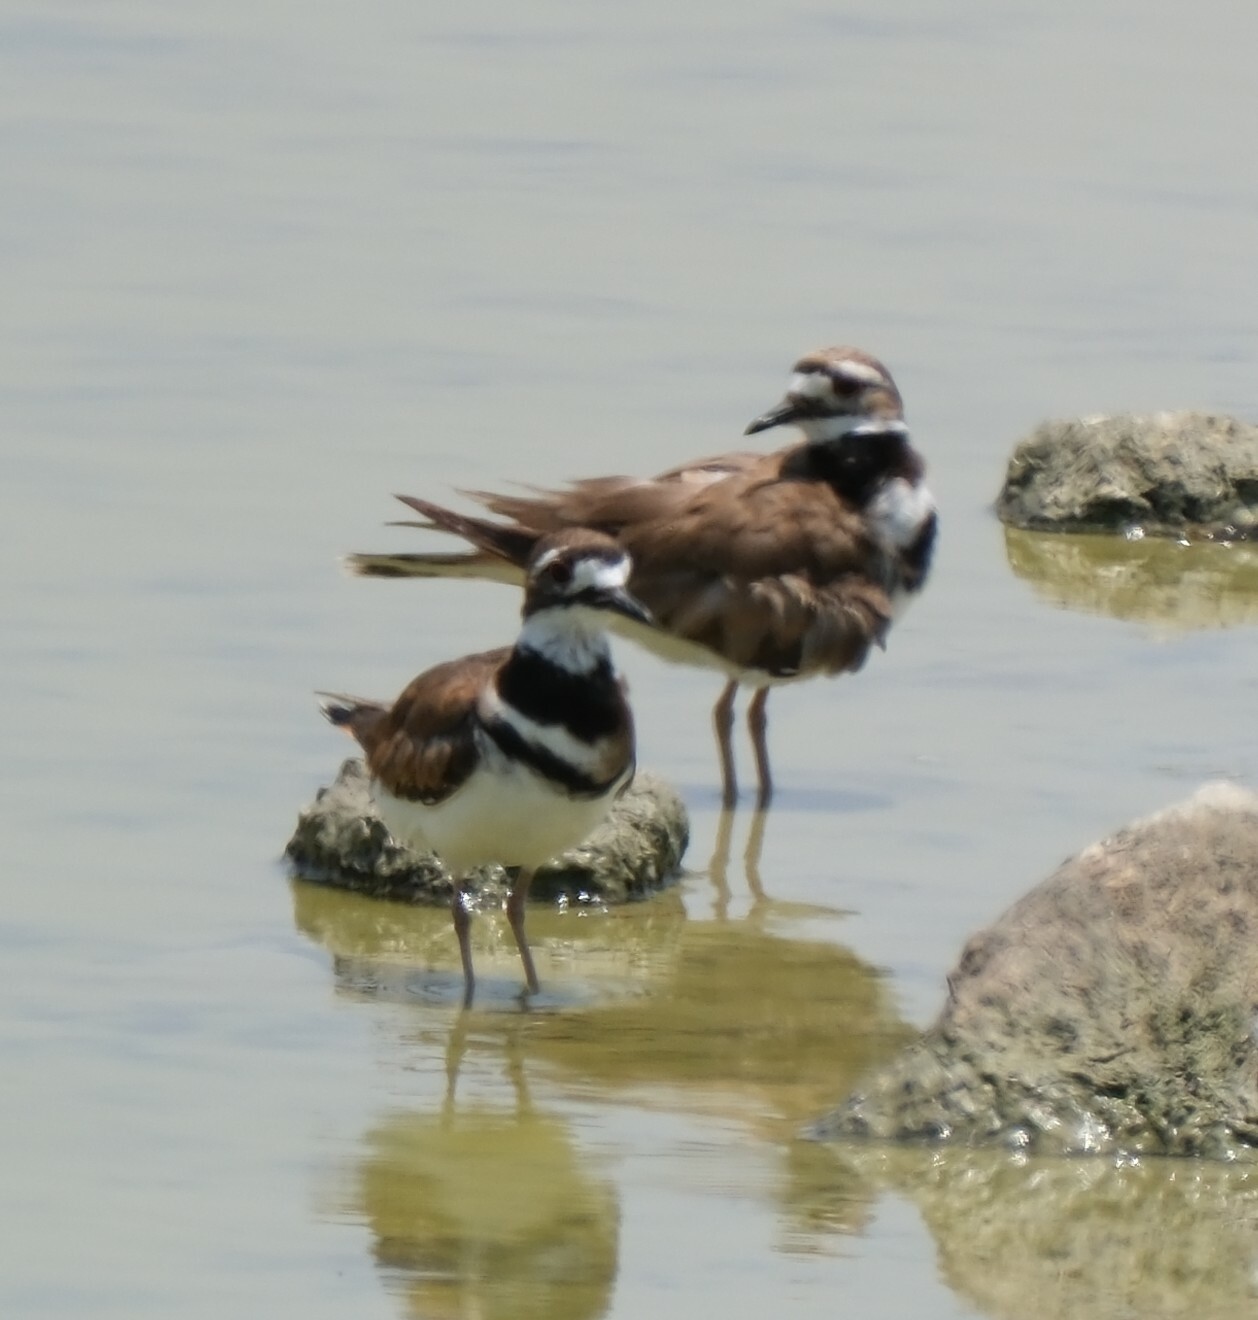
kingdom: Animalia
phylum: Chordata
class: Aves
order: Charadriiformes
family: Charadriidae
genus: Charadrius
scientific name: Charadrius vociferus
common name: Killdeer
